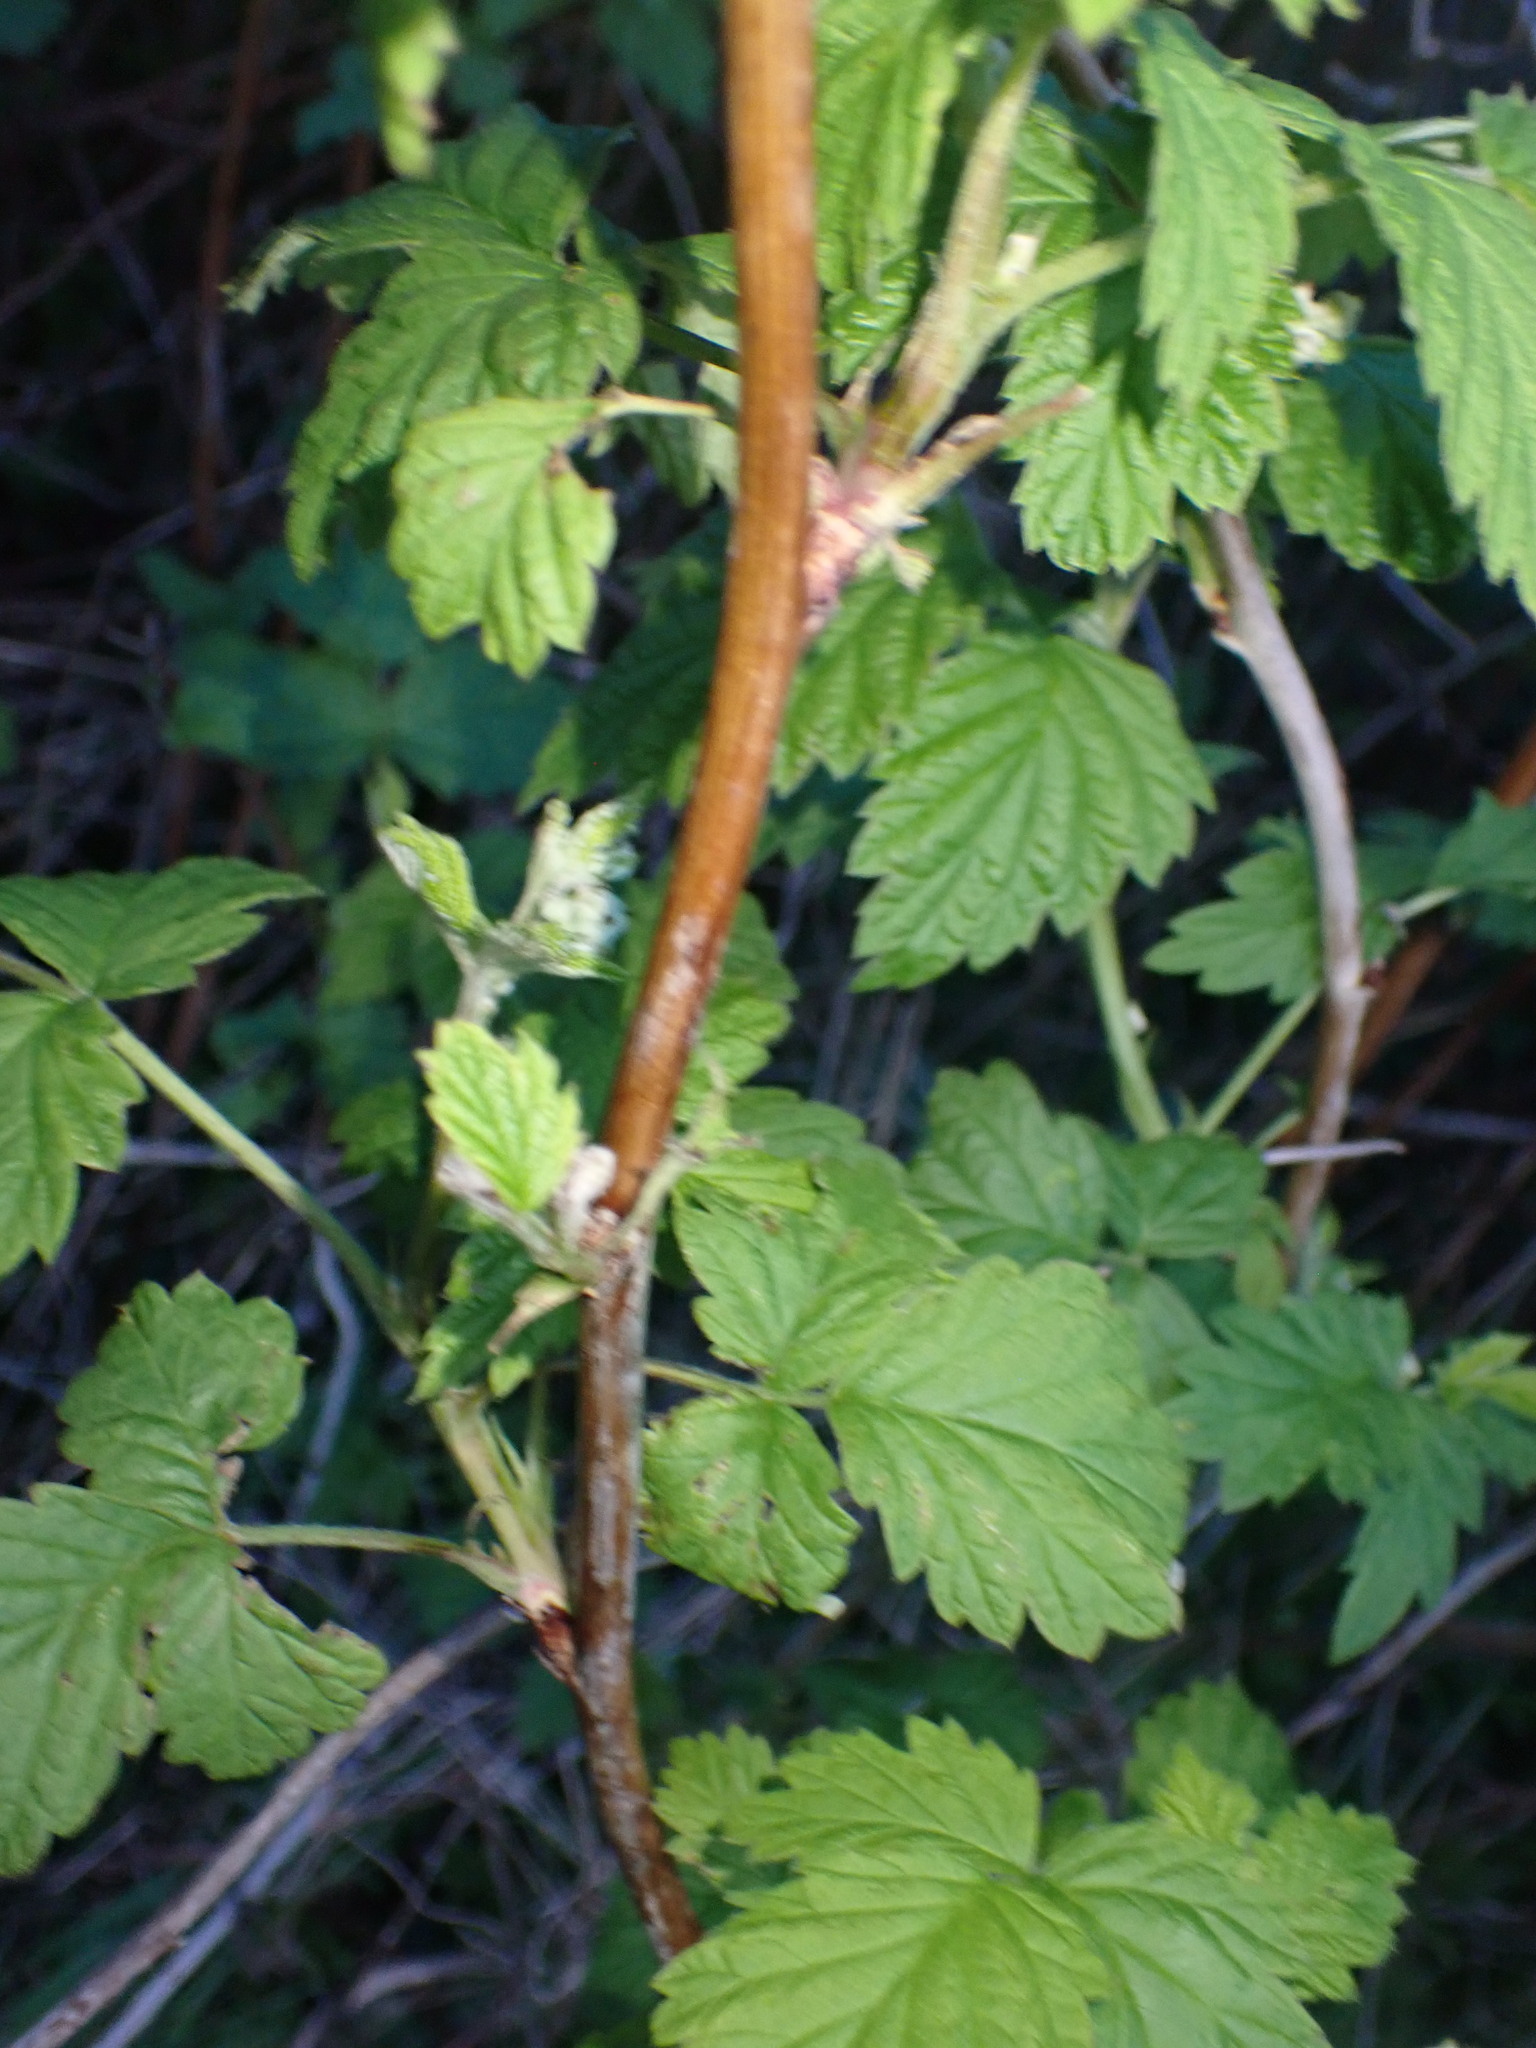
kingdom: Plantae
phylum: Tracheophyta
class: Magnoliopsida
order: Rosales
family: Rosaceae
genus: Rubus
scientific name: Rubus idaeus
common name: Raspberry
